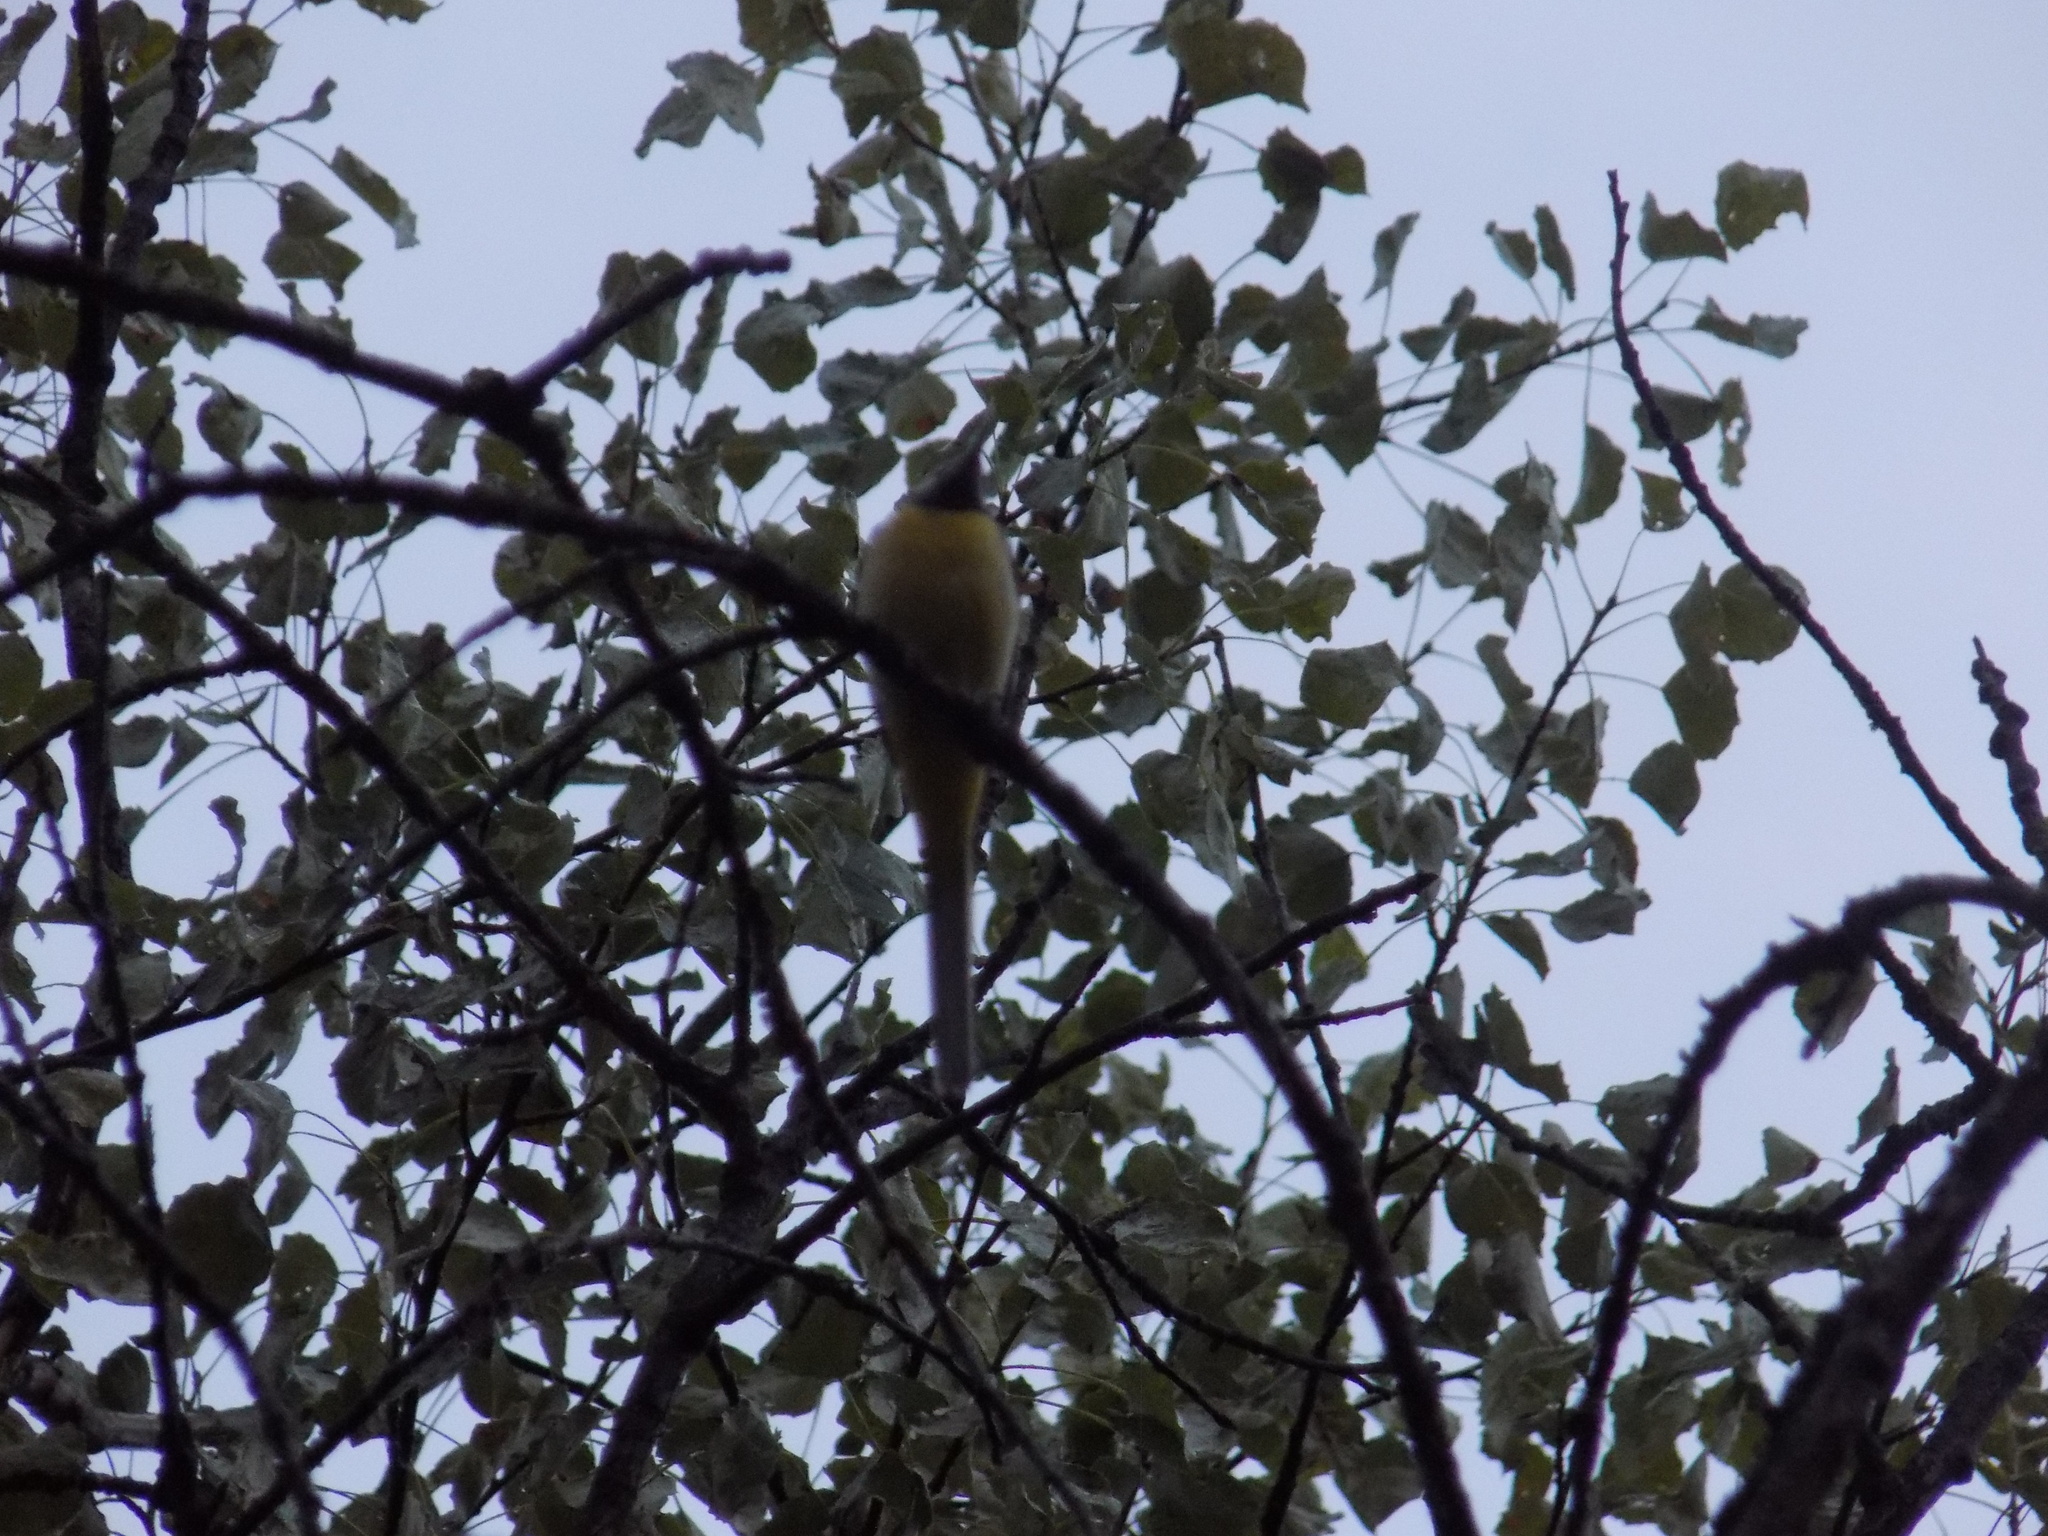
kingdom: Animalia
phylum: Chordata
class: Aves
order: Passeriformes
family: Motacillidae
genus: Motacilla
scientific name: Motacilla cinerea
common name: Grey wagtail
